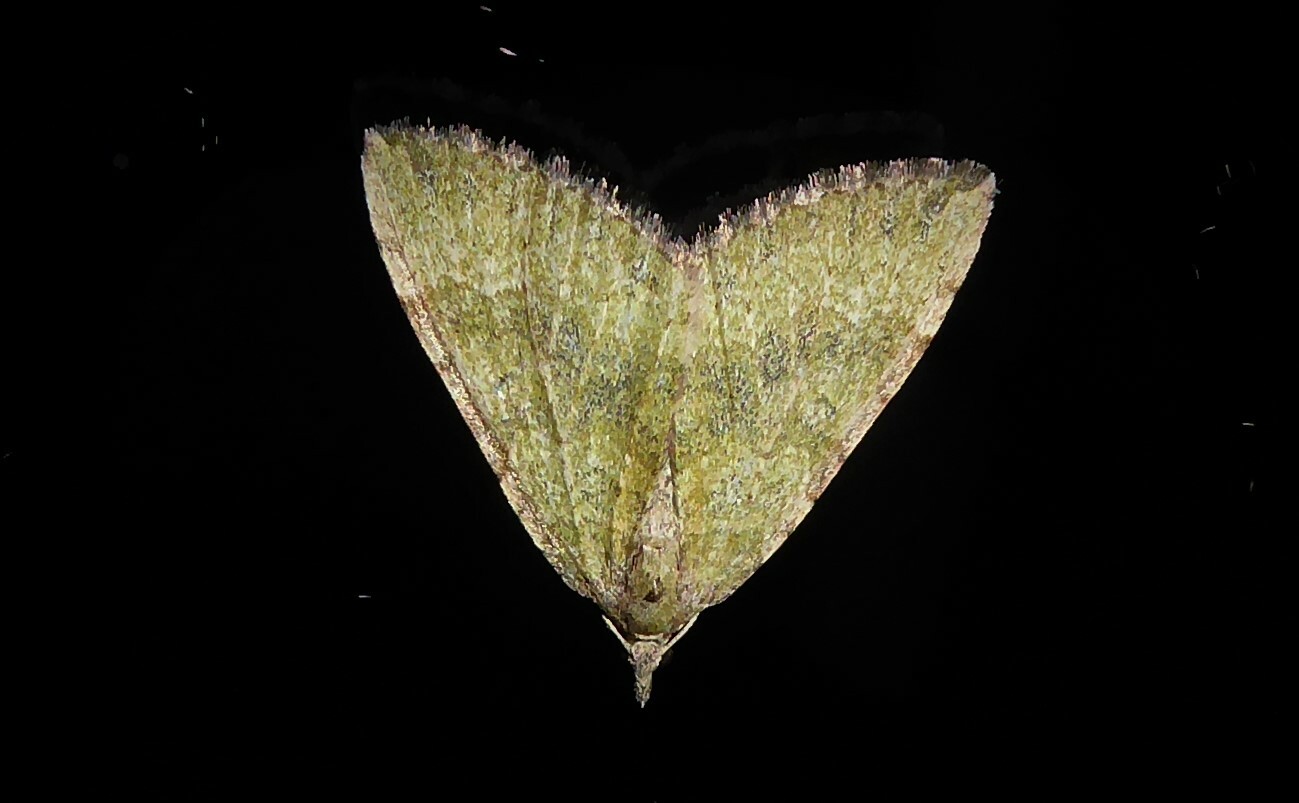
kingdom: Animalia
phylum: Arthropoda
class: Insecta
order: Lepidoptera
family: Geometridae
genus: Epyaxa
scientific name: Epyaxa rosearia
